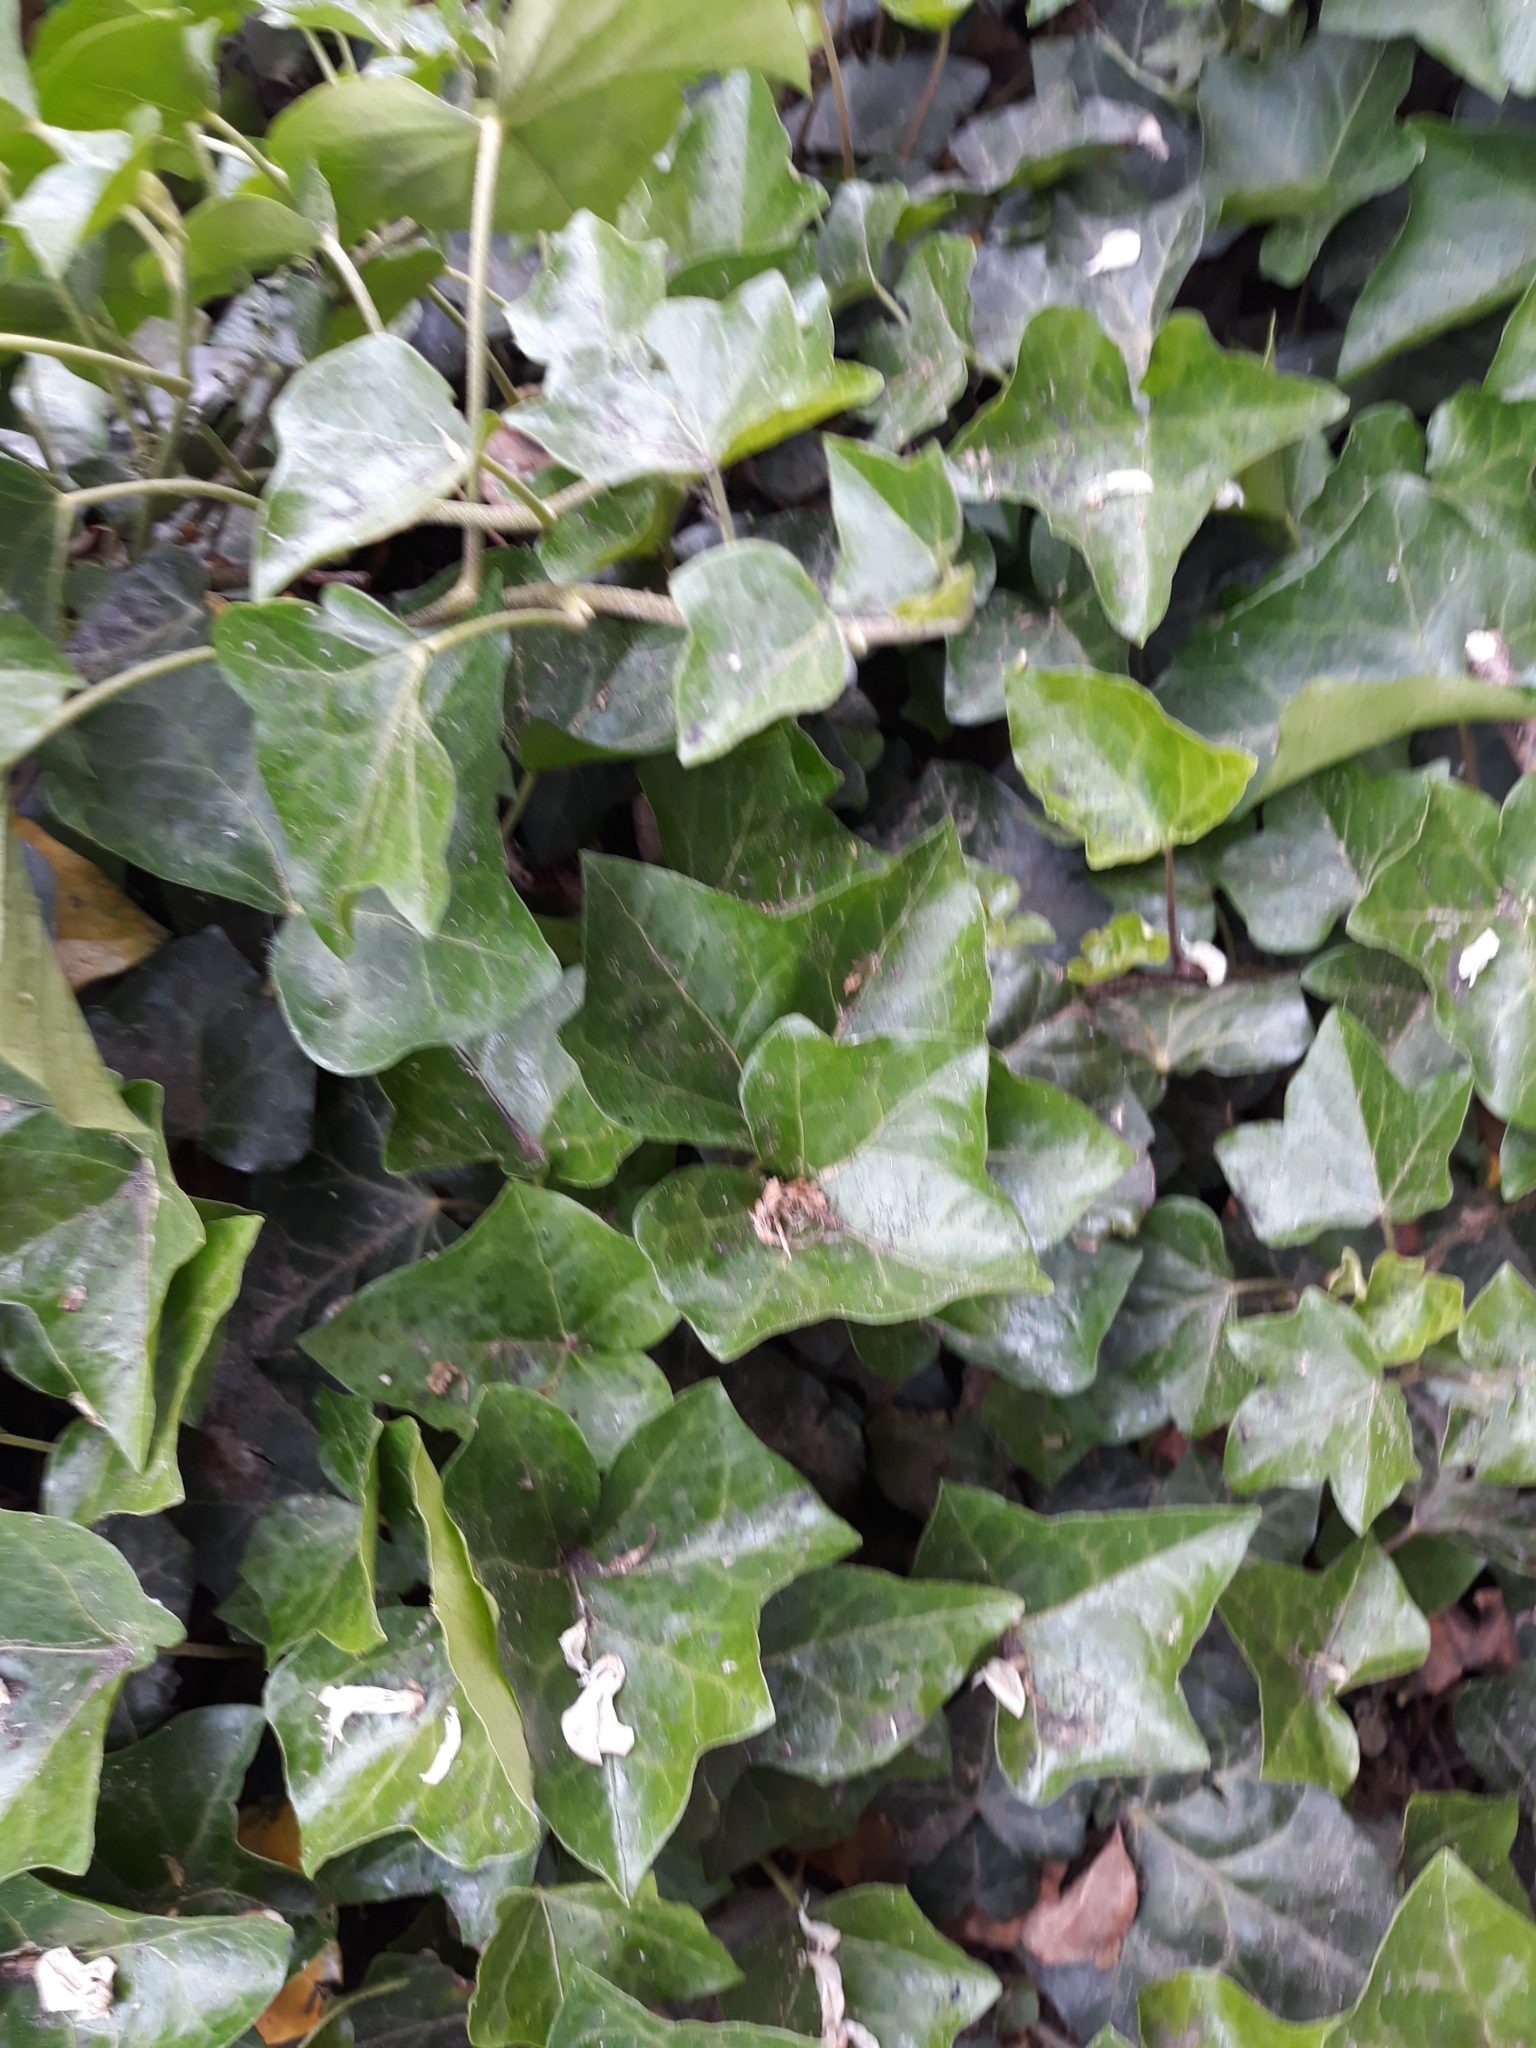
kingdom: Plantae
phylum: Tracheophyta
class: Magnoliopsida
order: Apiales
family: Araliaceae
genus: Hedera
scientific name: Hedera helix
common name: Ivy
